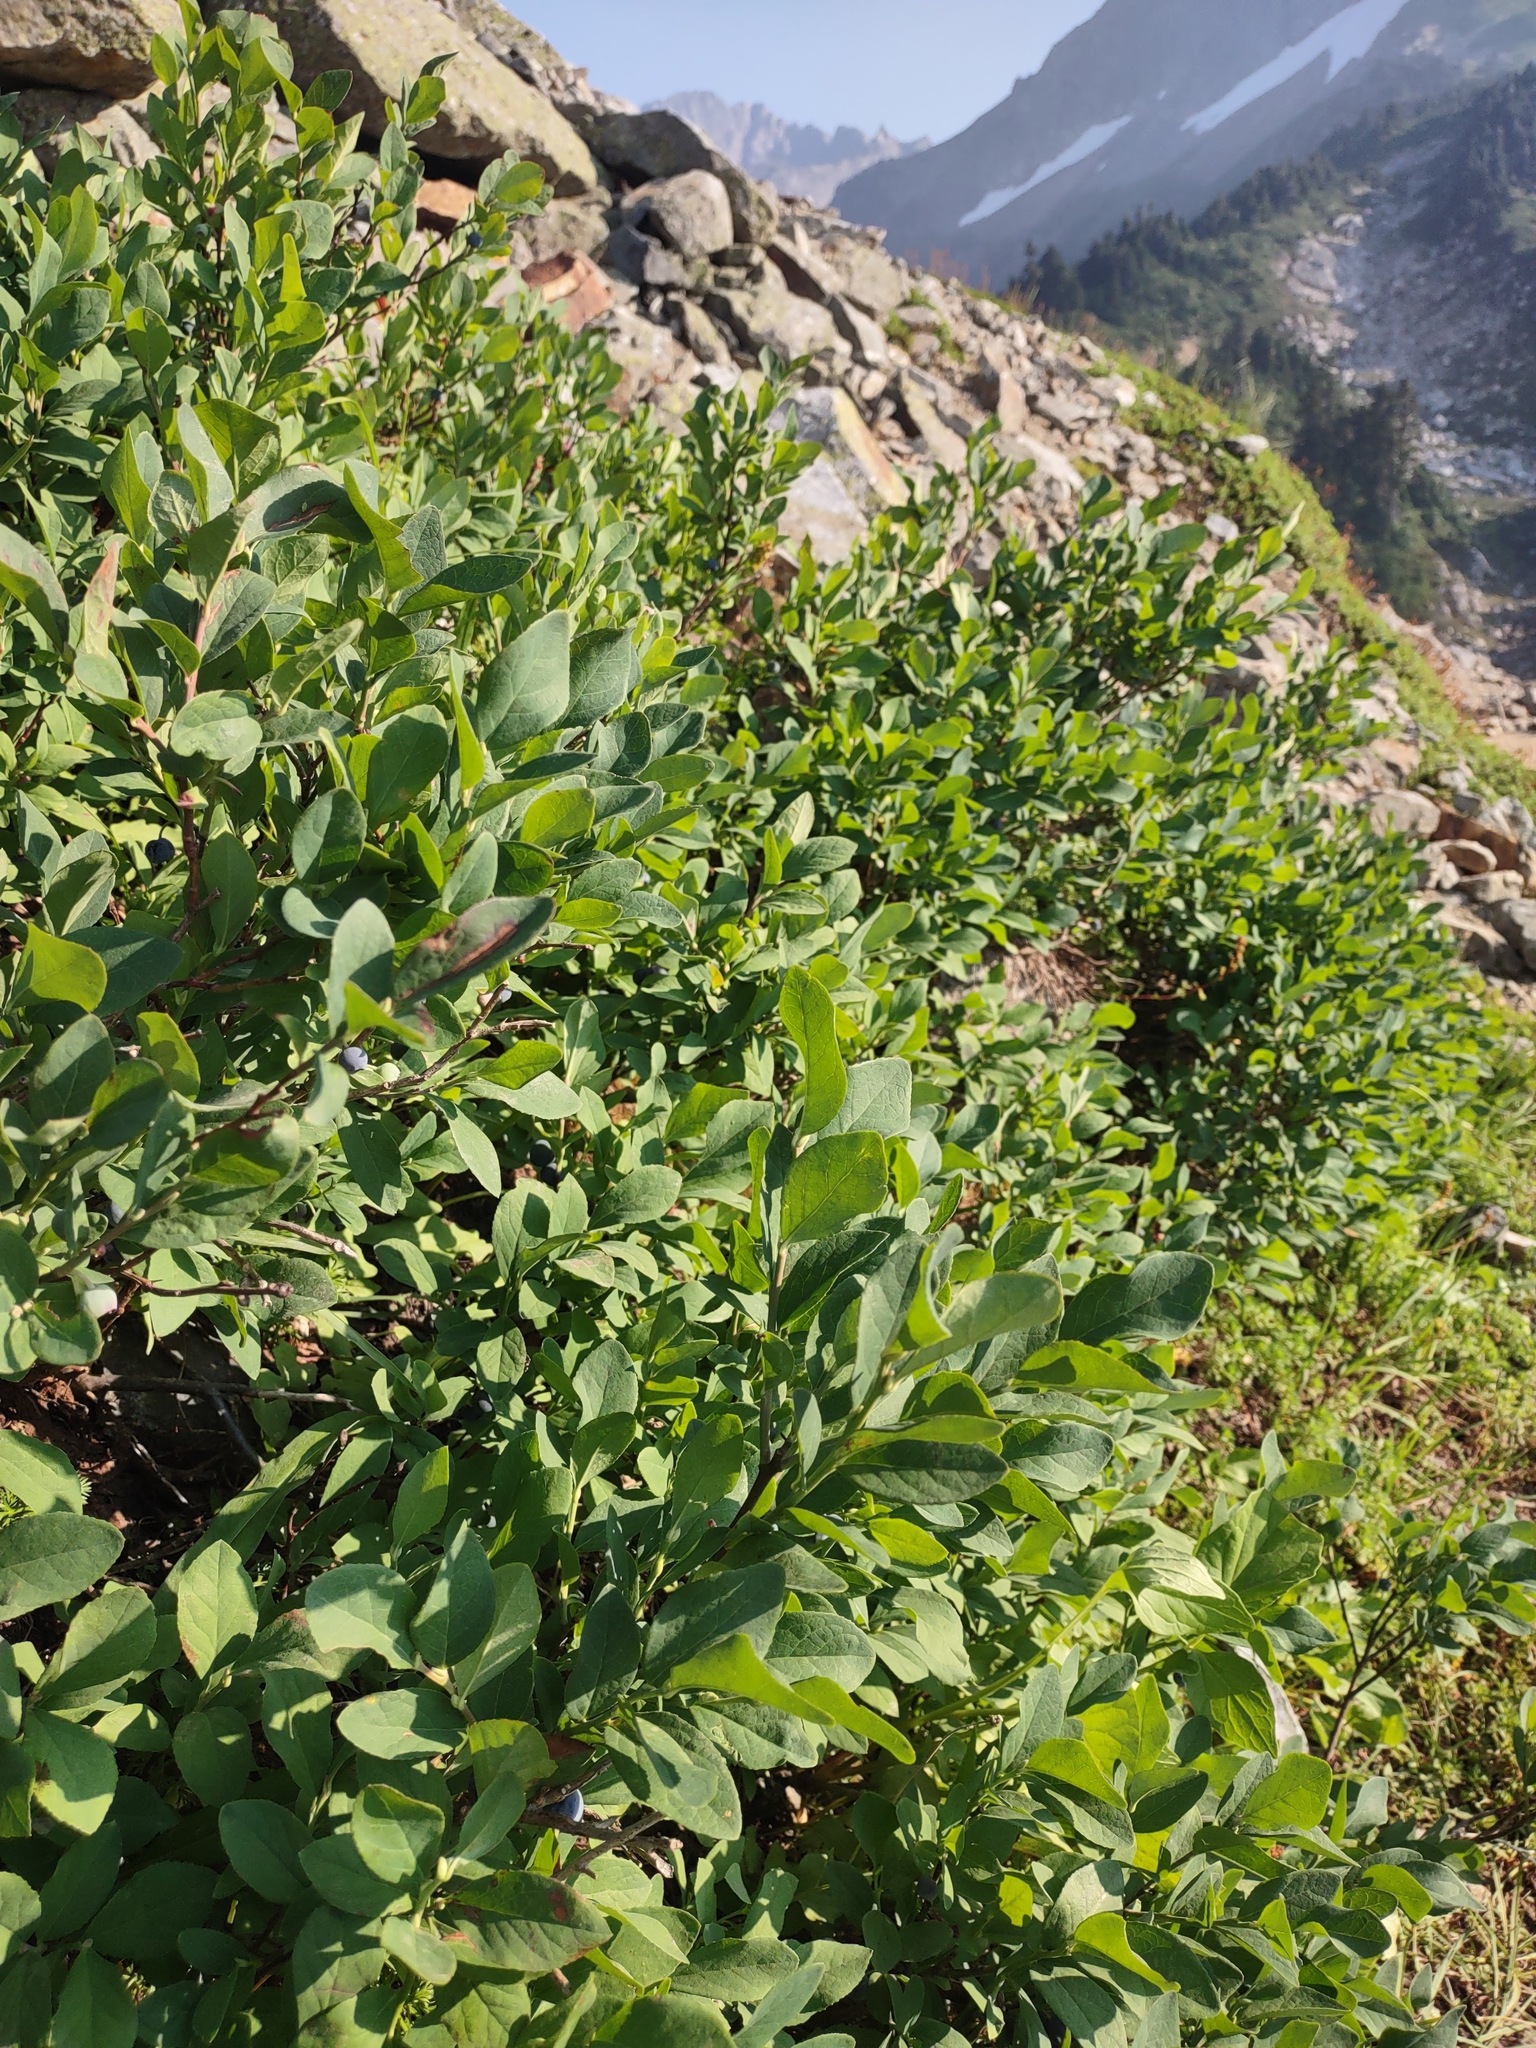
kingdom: Plantae
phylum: Tracheophyta
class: Magnoliopsida
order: Ericales
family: Ericaceae
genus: Vaccinium
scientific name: Vaccinium deliciosum
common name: Cascade bilberry
